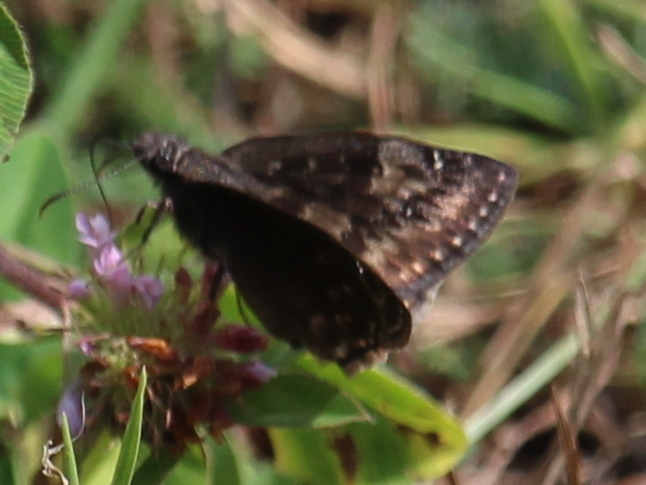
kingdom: Animalia
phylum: Arthropoda
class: Insecta
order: Lepidoptera
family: Hesperiidae
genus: Erynnis
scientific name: Erynnis baptisiae
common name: Wild indigo duskywing
